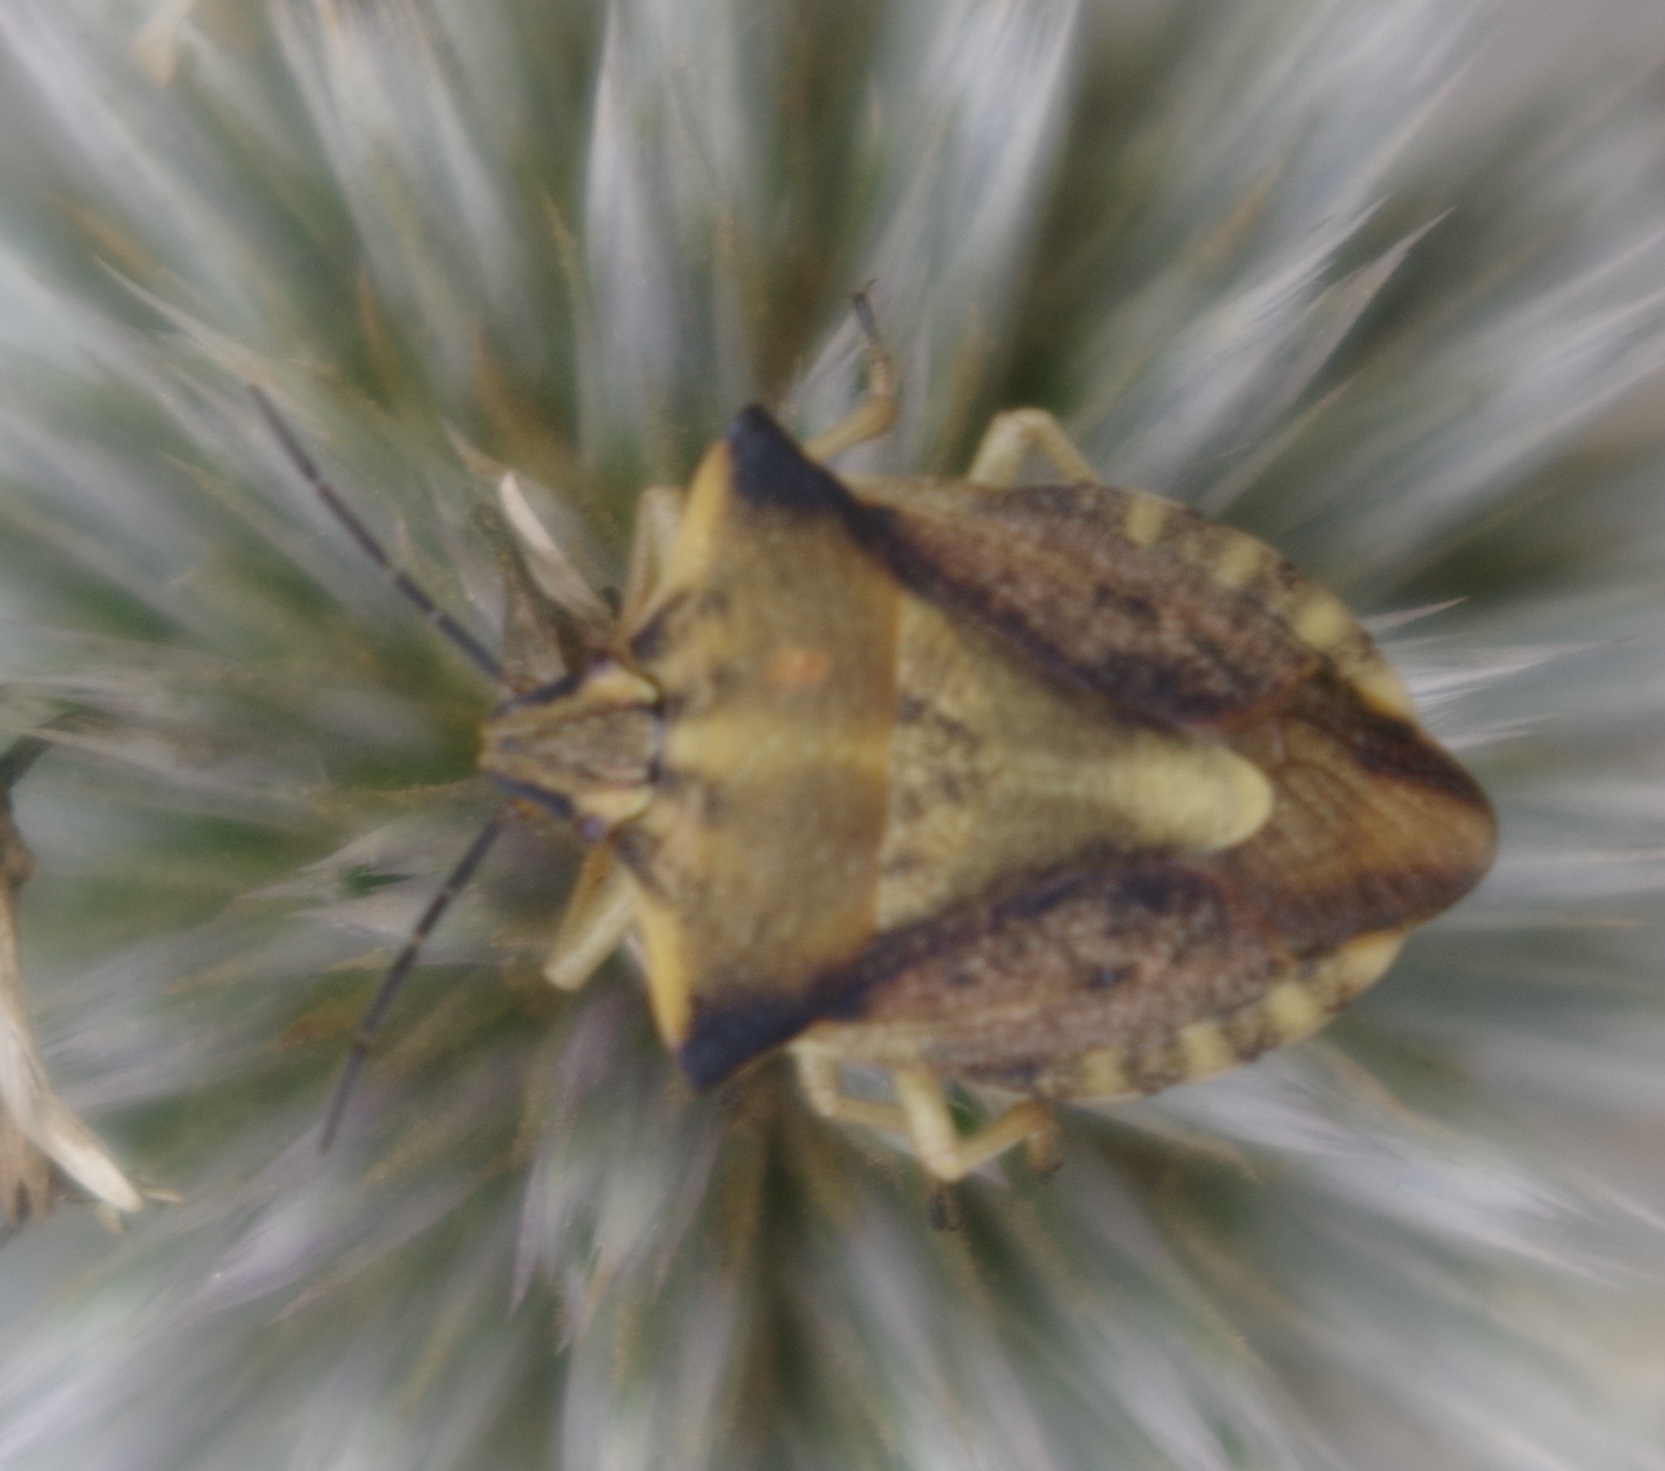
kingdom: Animalia
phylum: Arthropoda
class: Insecta
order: Hemiptera
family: Pentatomidae
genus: Carpocoris
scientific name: Carpocoris fuscispinus
